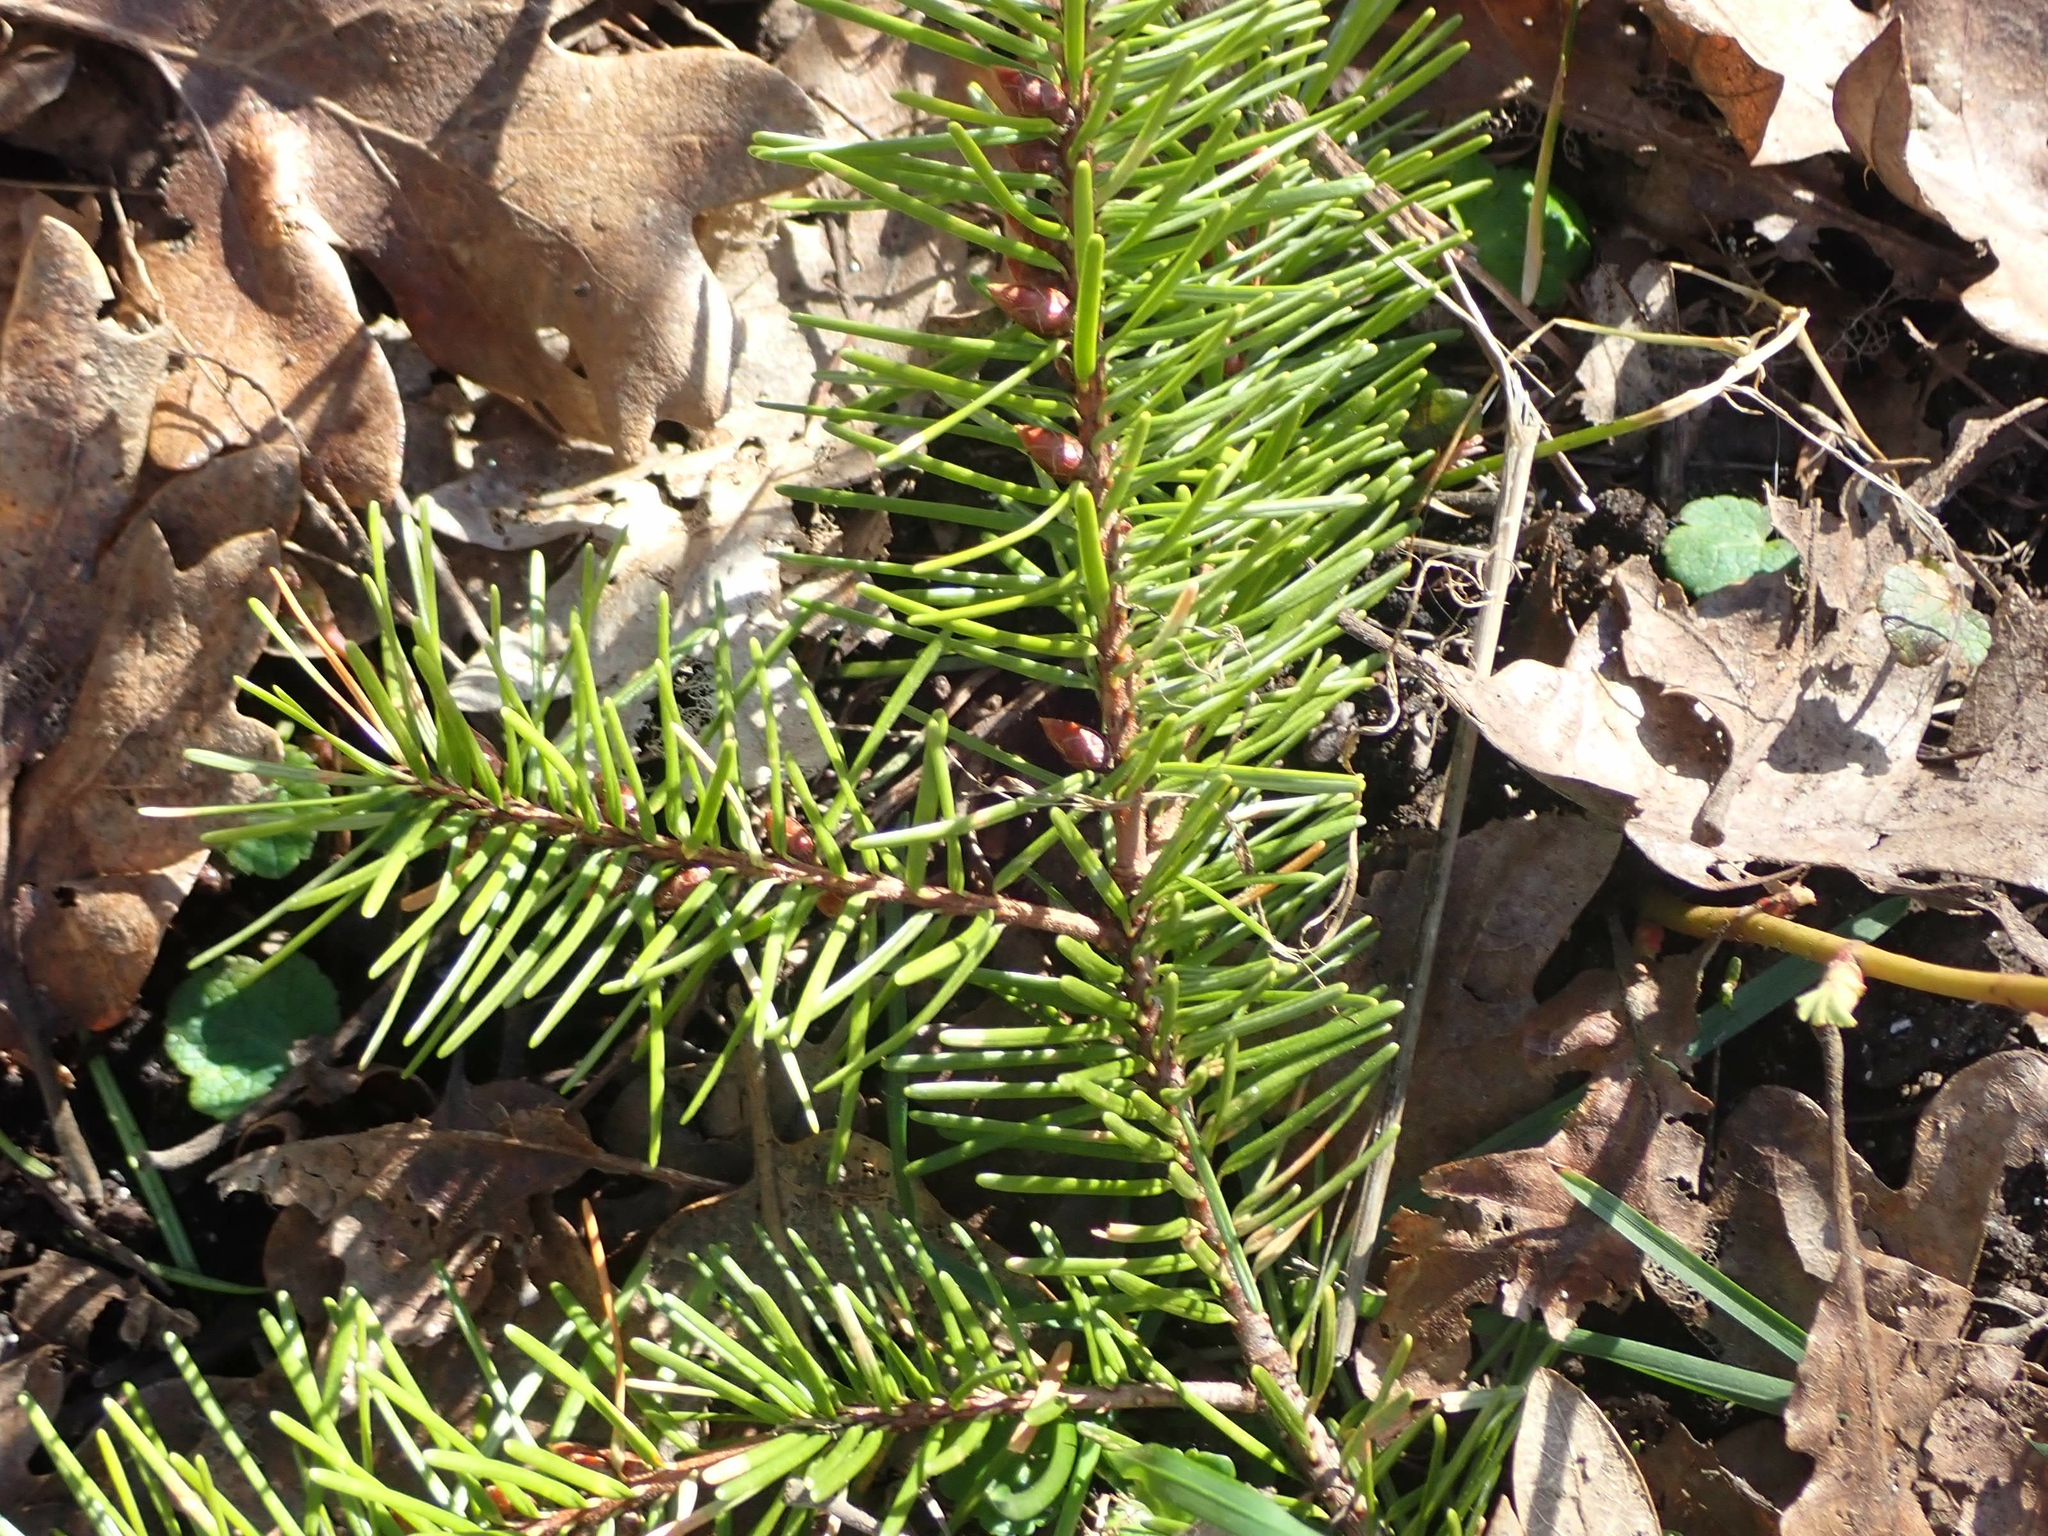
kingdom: Plantae
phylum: Tracheophyta
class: Pinopsida
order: Pinales
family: Pinaceae
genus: Pseudotsuga
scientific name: Pseudotsuga menziesii
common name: Douglas fir
